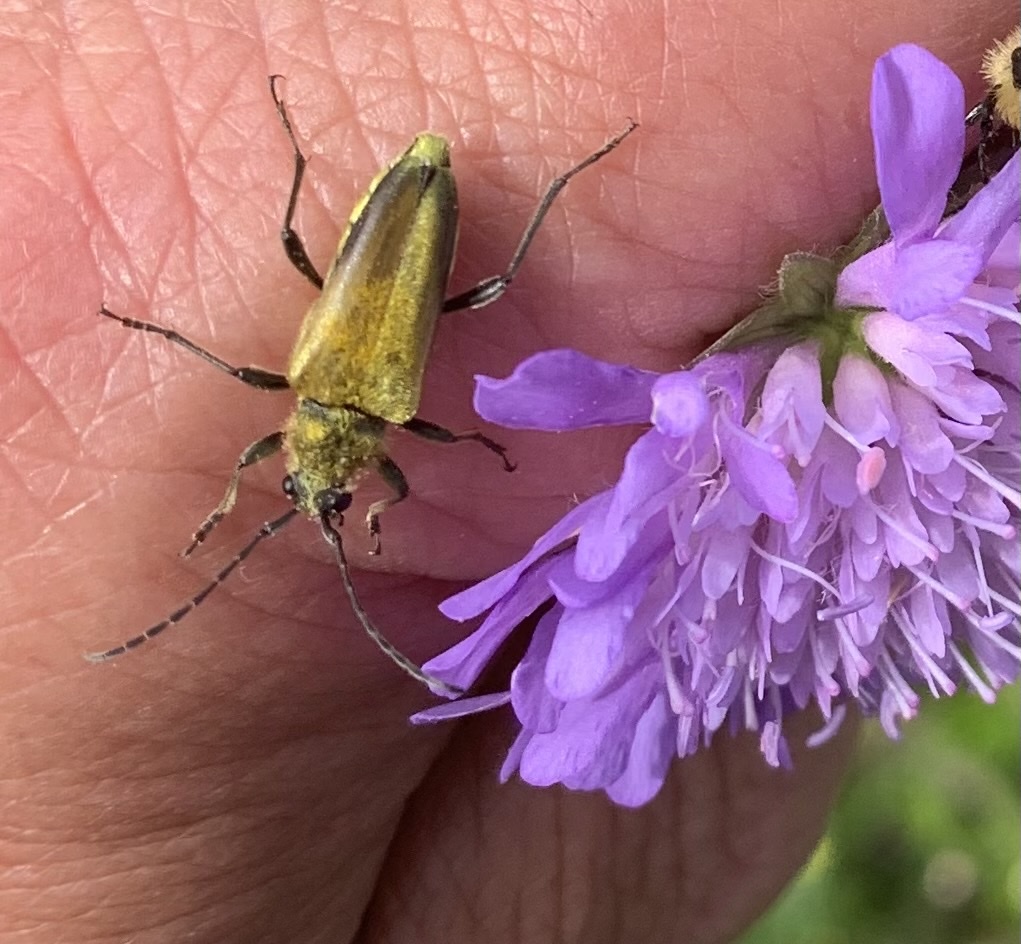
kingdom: Animalia
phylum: Arthropoda
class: Insecta
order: Coleoptera
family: Cerambycidae
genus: Cosmosalia
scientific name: Cosmosalia chrysocoma
